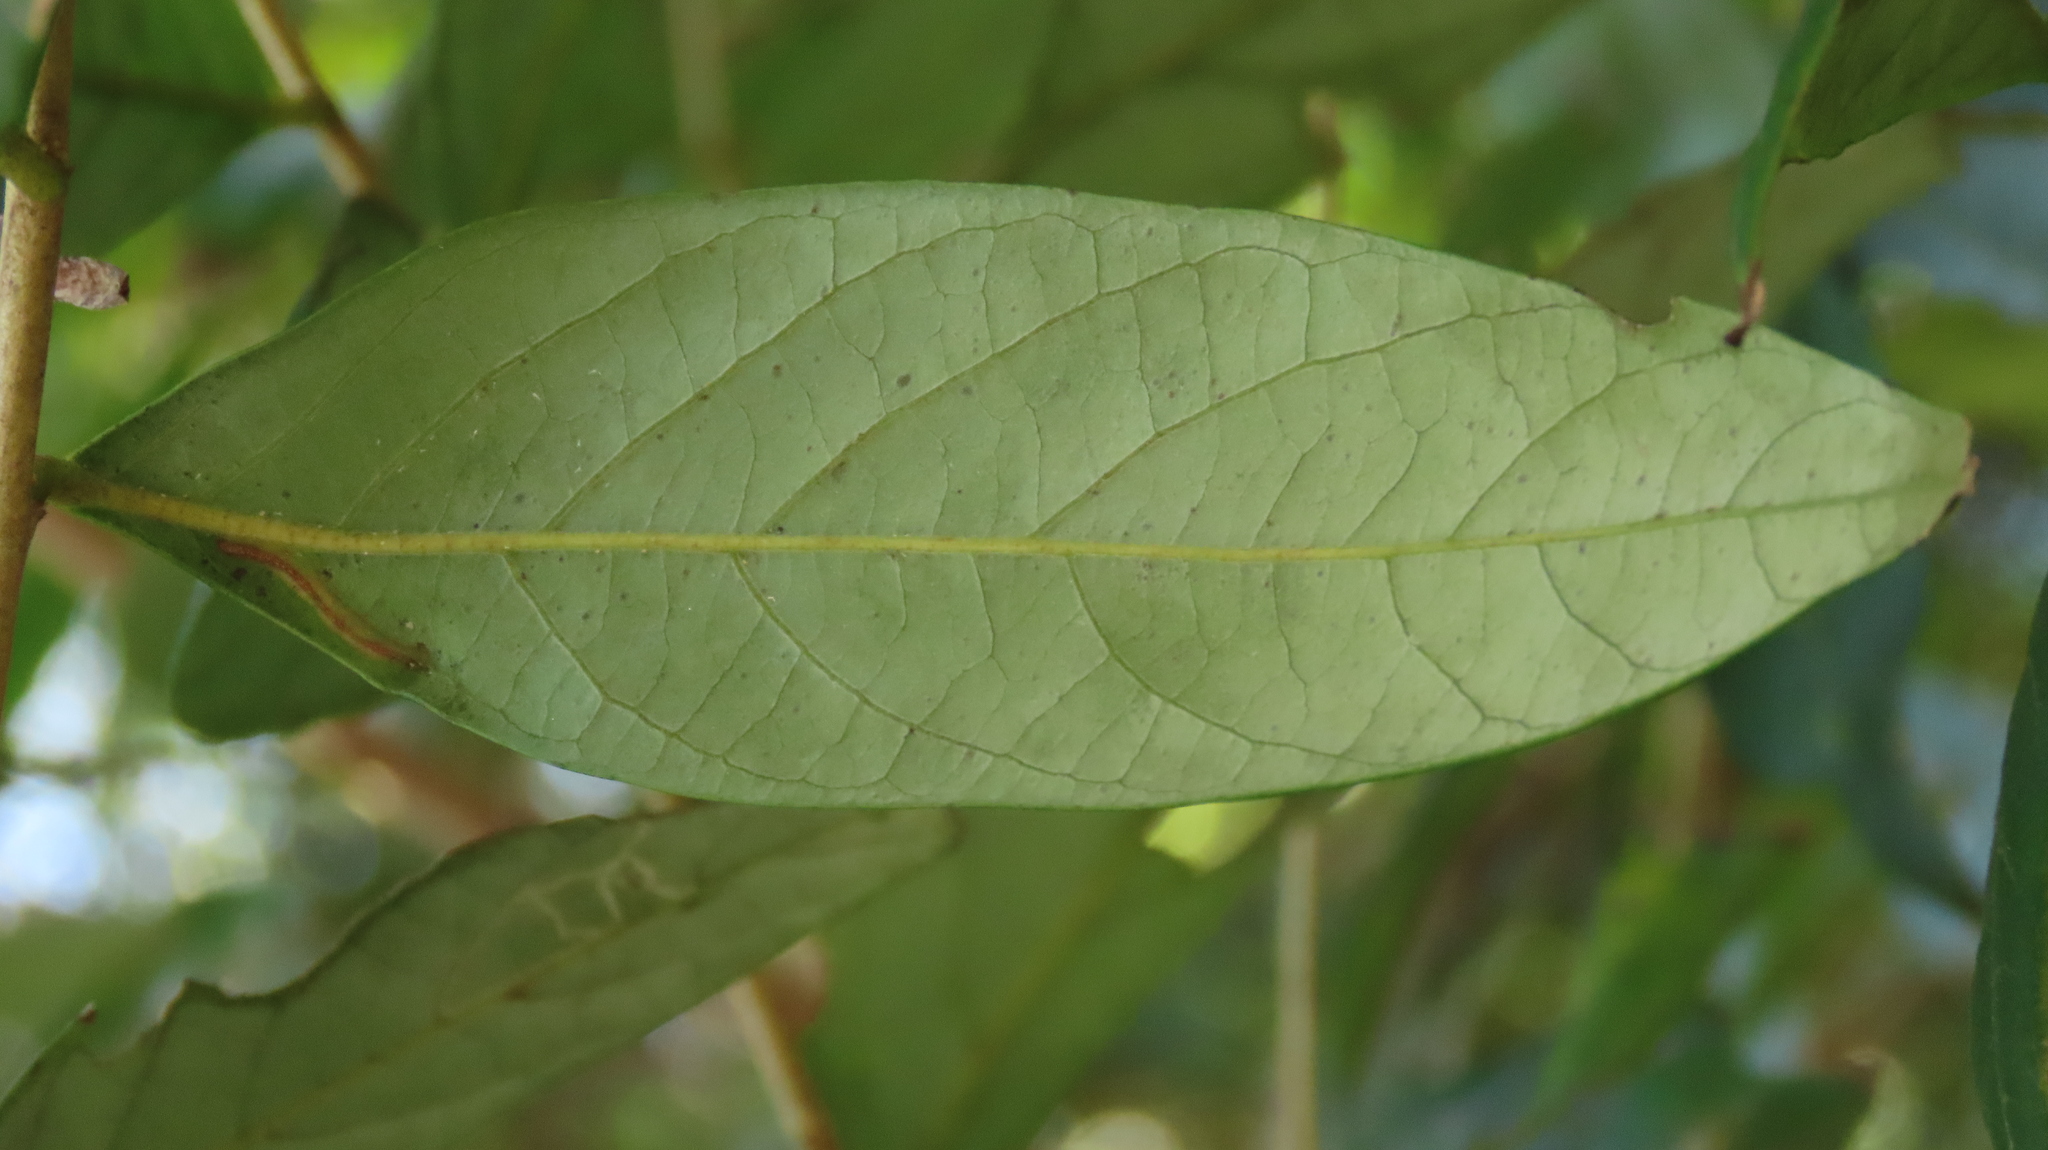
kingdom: Plantae
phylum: Tracheophyta
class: Magnoliopsida
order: Malpighiales
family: Phyllanthaceae
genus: Glochidion
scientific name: Glochidion acuminatum
